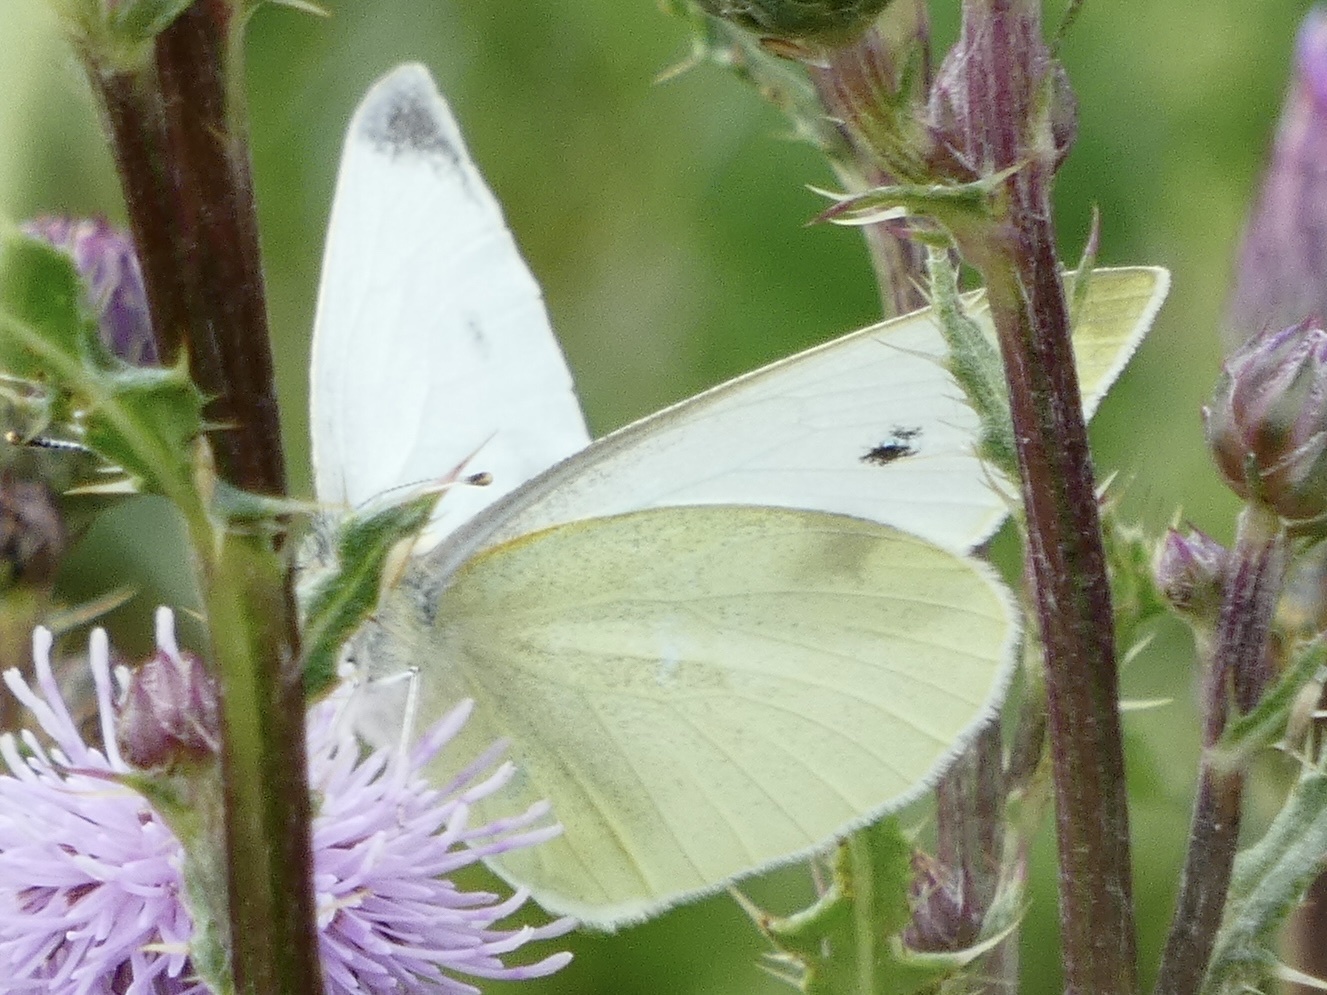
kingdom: Animalia
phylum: Arthropoda
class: Insecta
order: Lepidoptera
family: Pieridae
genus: Pieris
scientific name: Pieris rapae
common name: Small white
